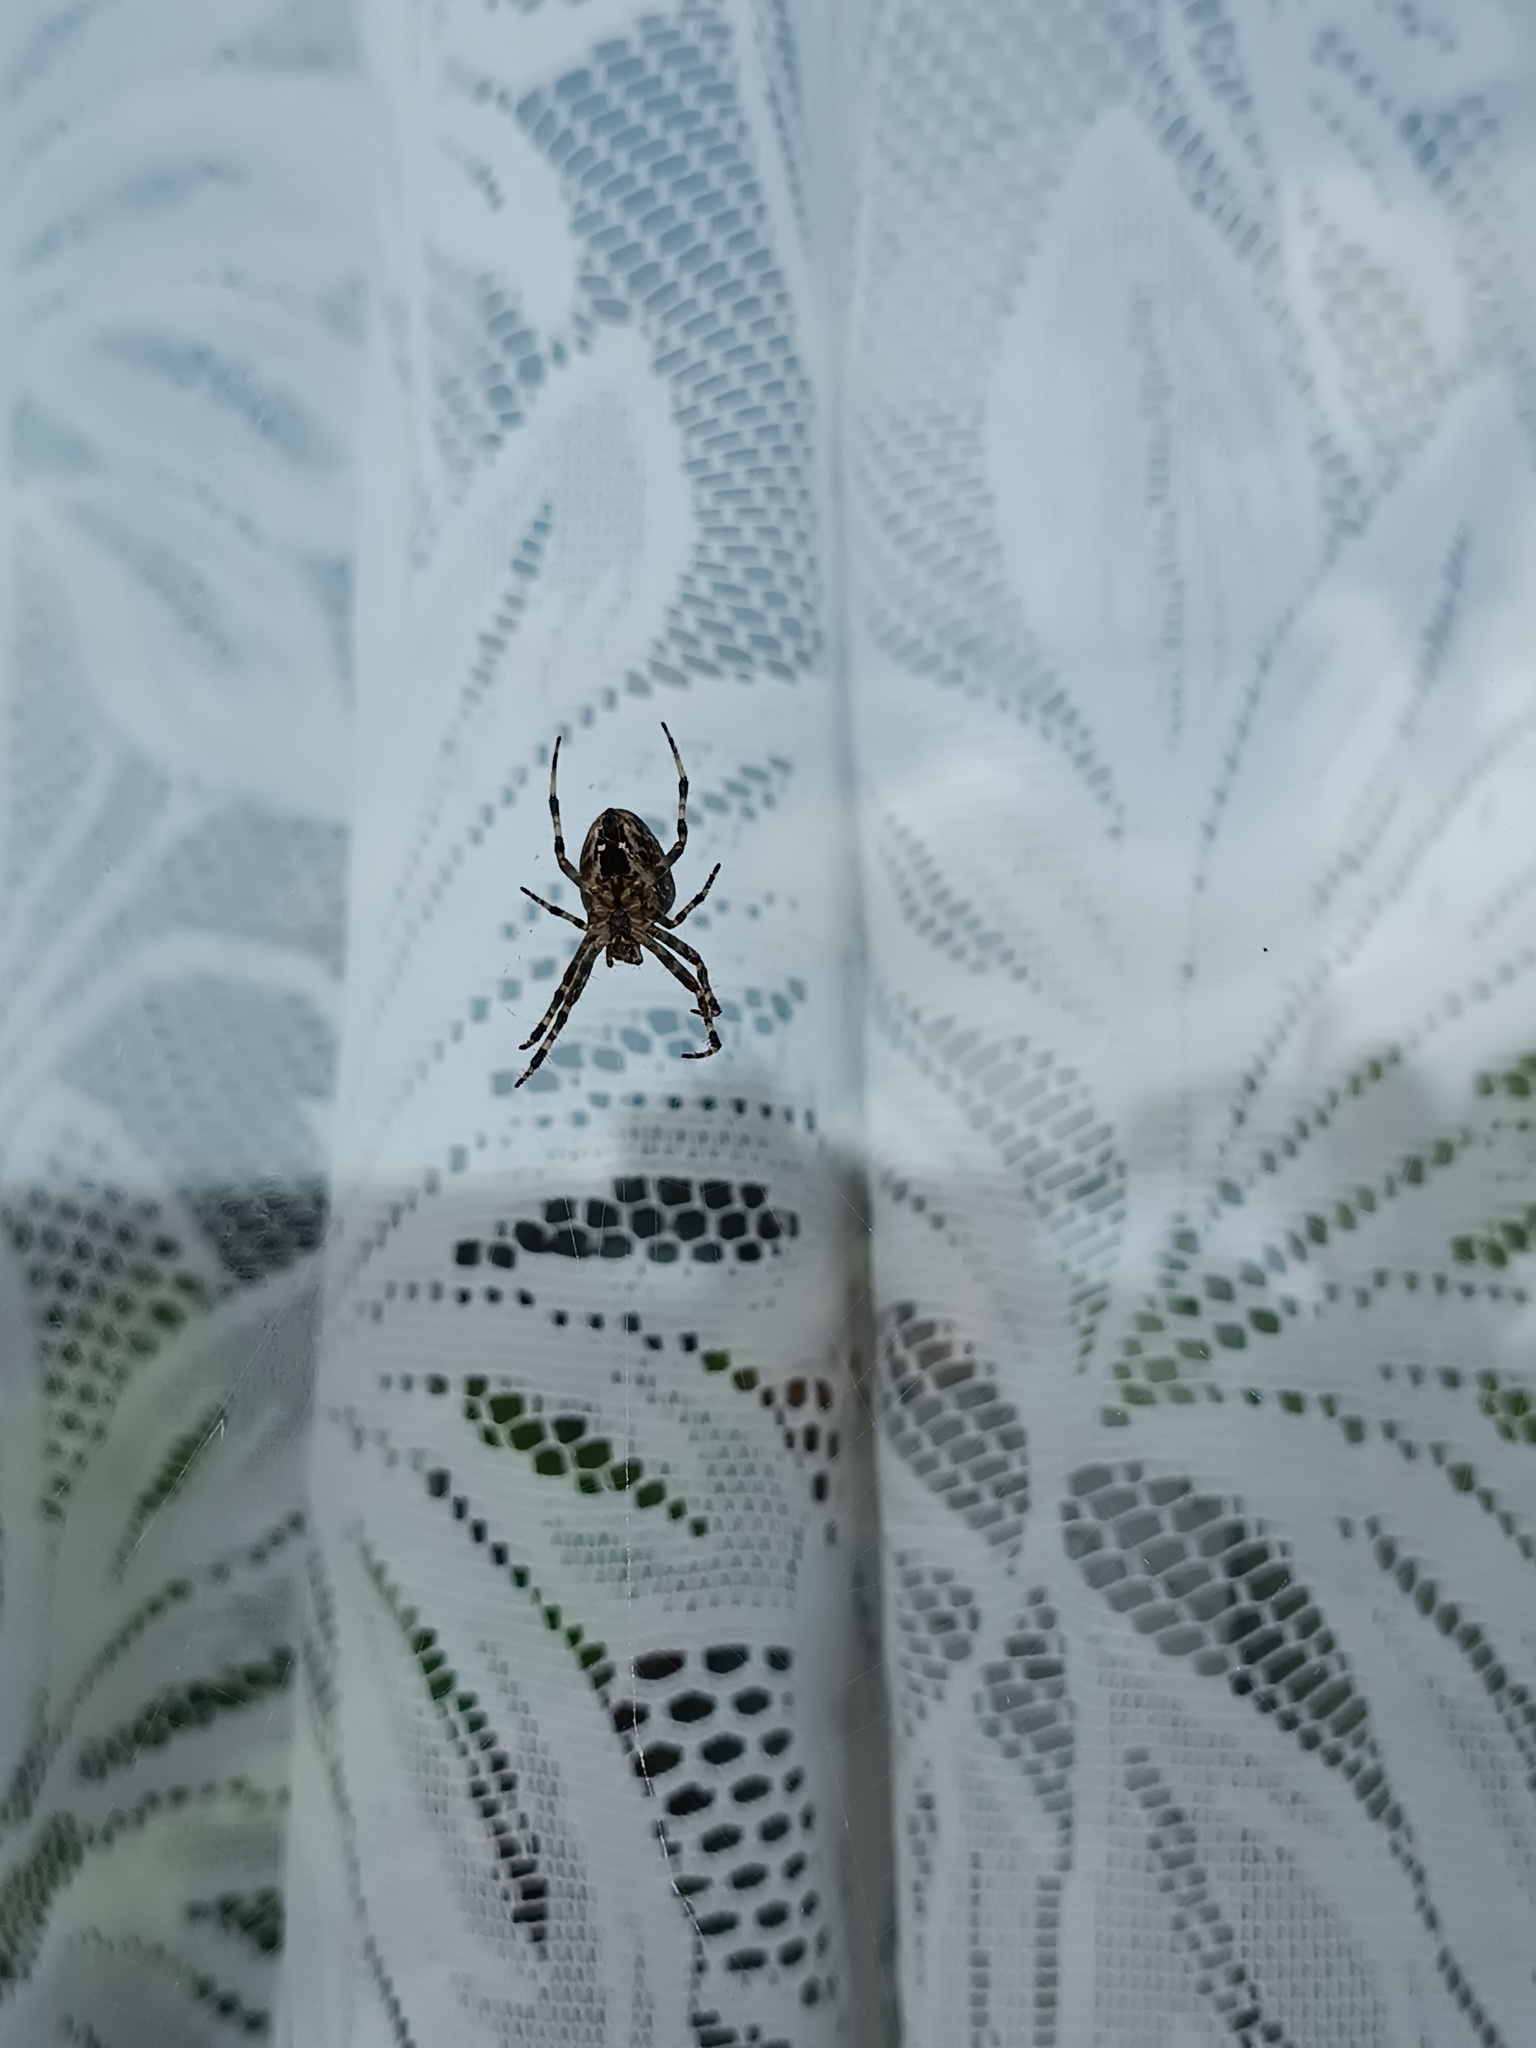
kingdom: Animalia
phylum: Arthropoda
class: Arachnida
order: Araneae
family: Araneidae
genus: Araneus
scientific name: Araneus diadematus
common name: Cross orbweaver
